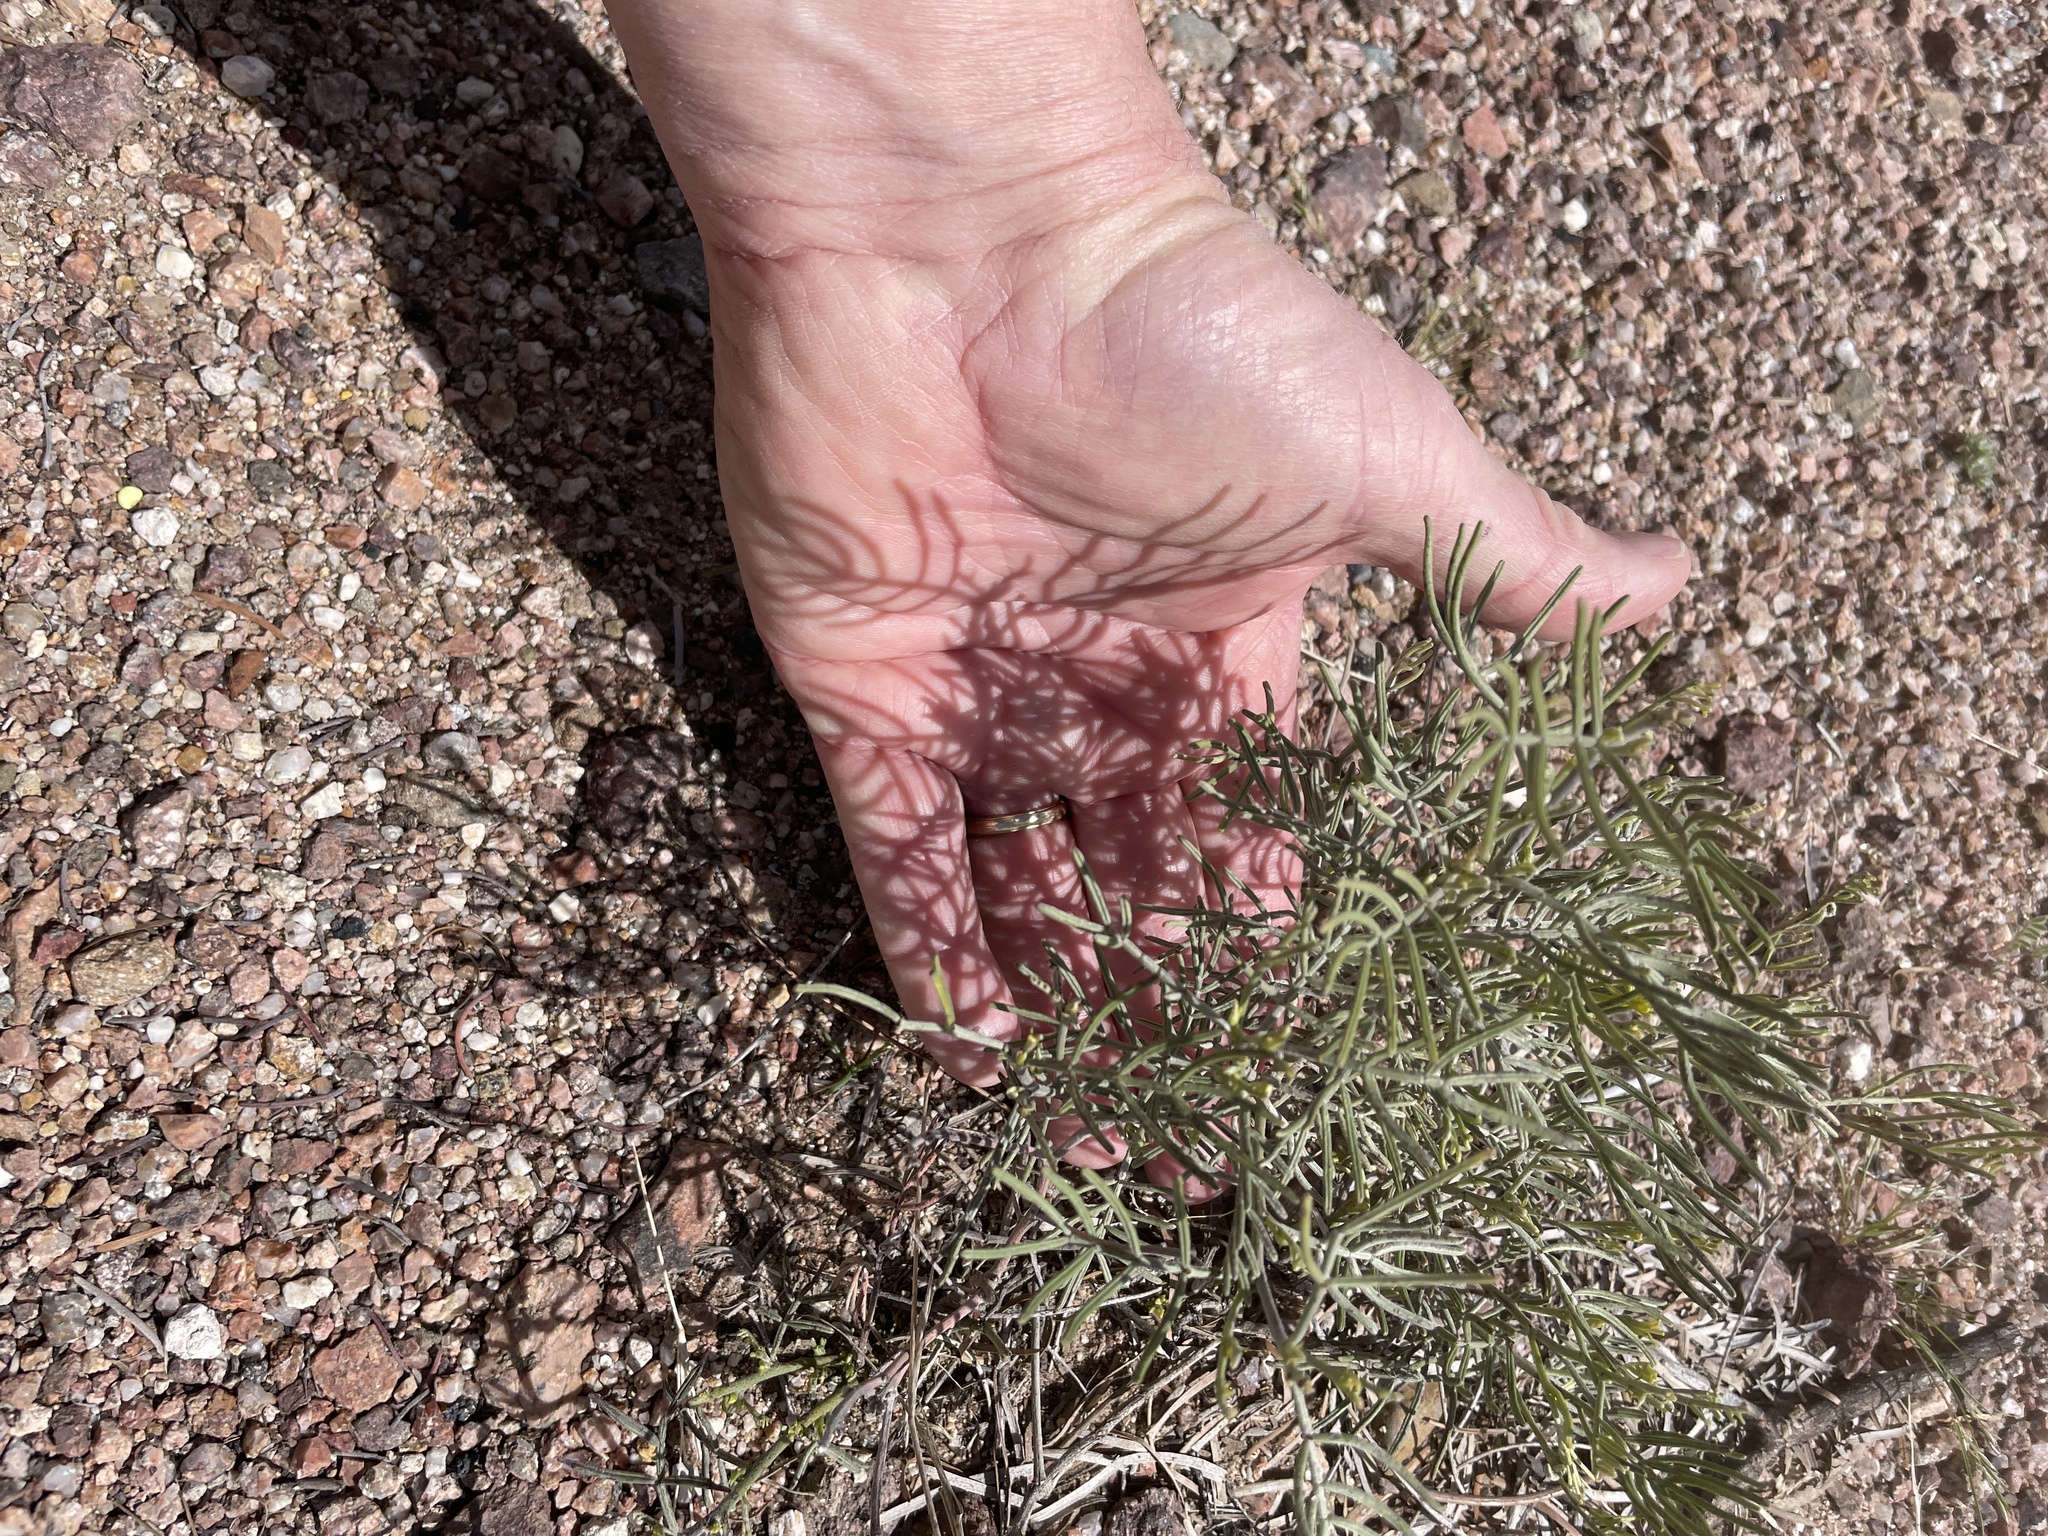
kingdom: Plantae
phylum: Tracheophyta
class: Magnoliopsida
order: Fabales
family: Fabaceae
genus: Senna
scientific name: Senna artemisioides
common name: Burnt-leaved acacia
